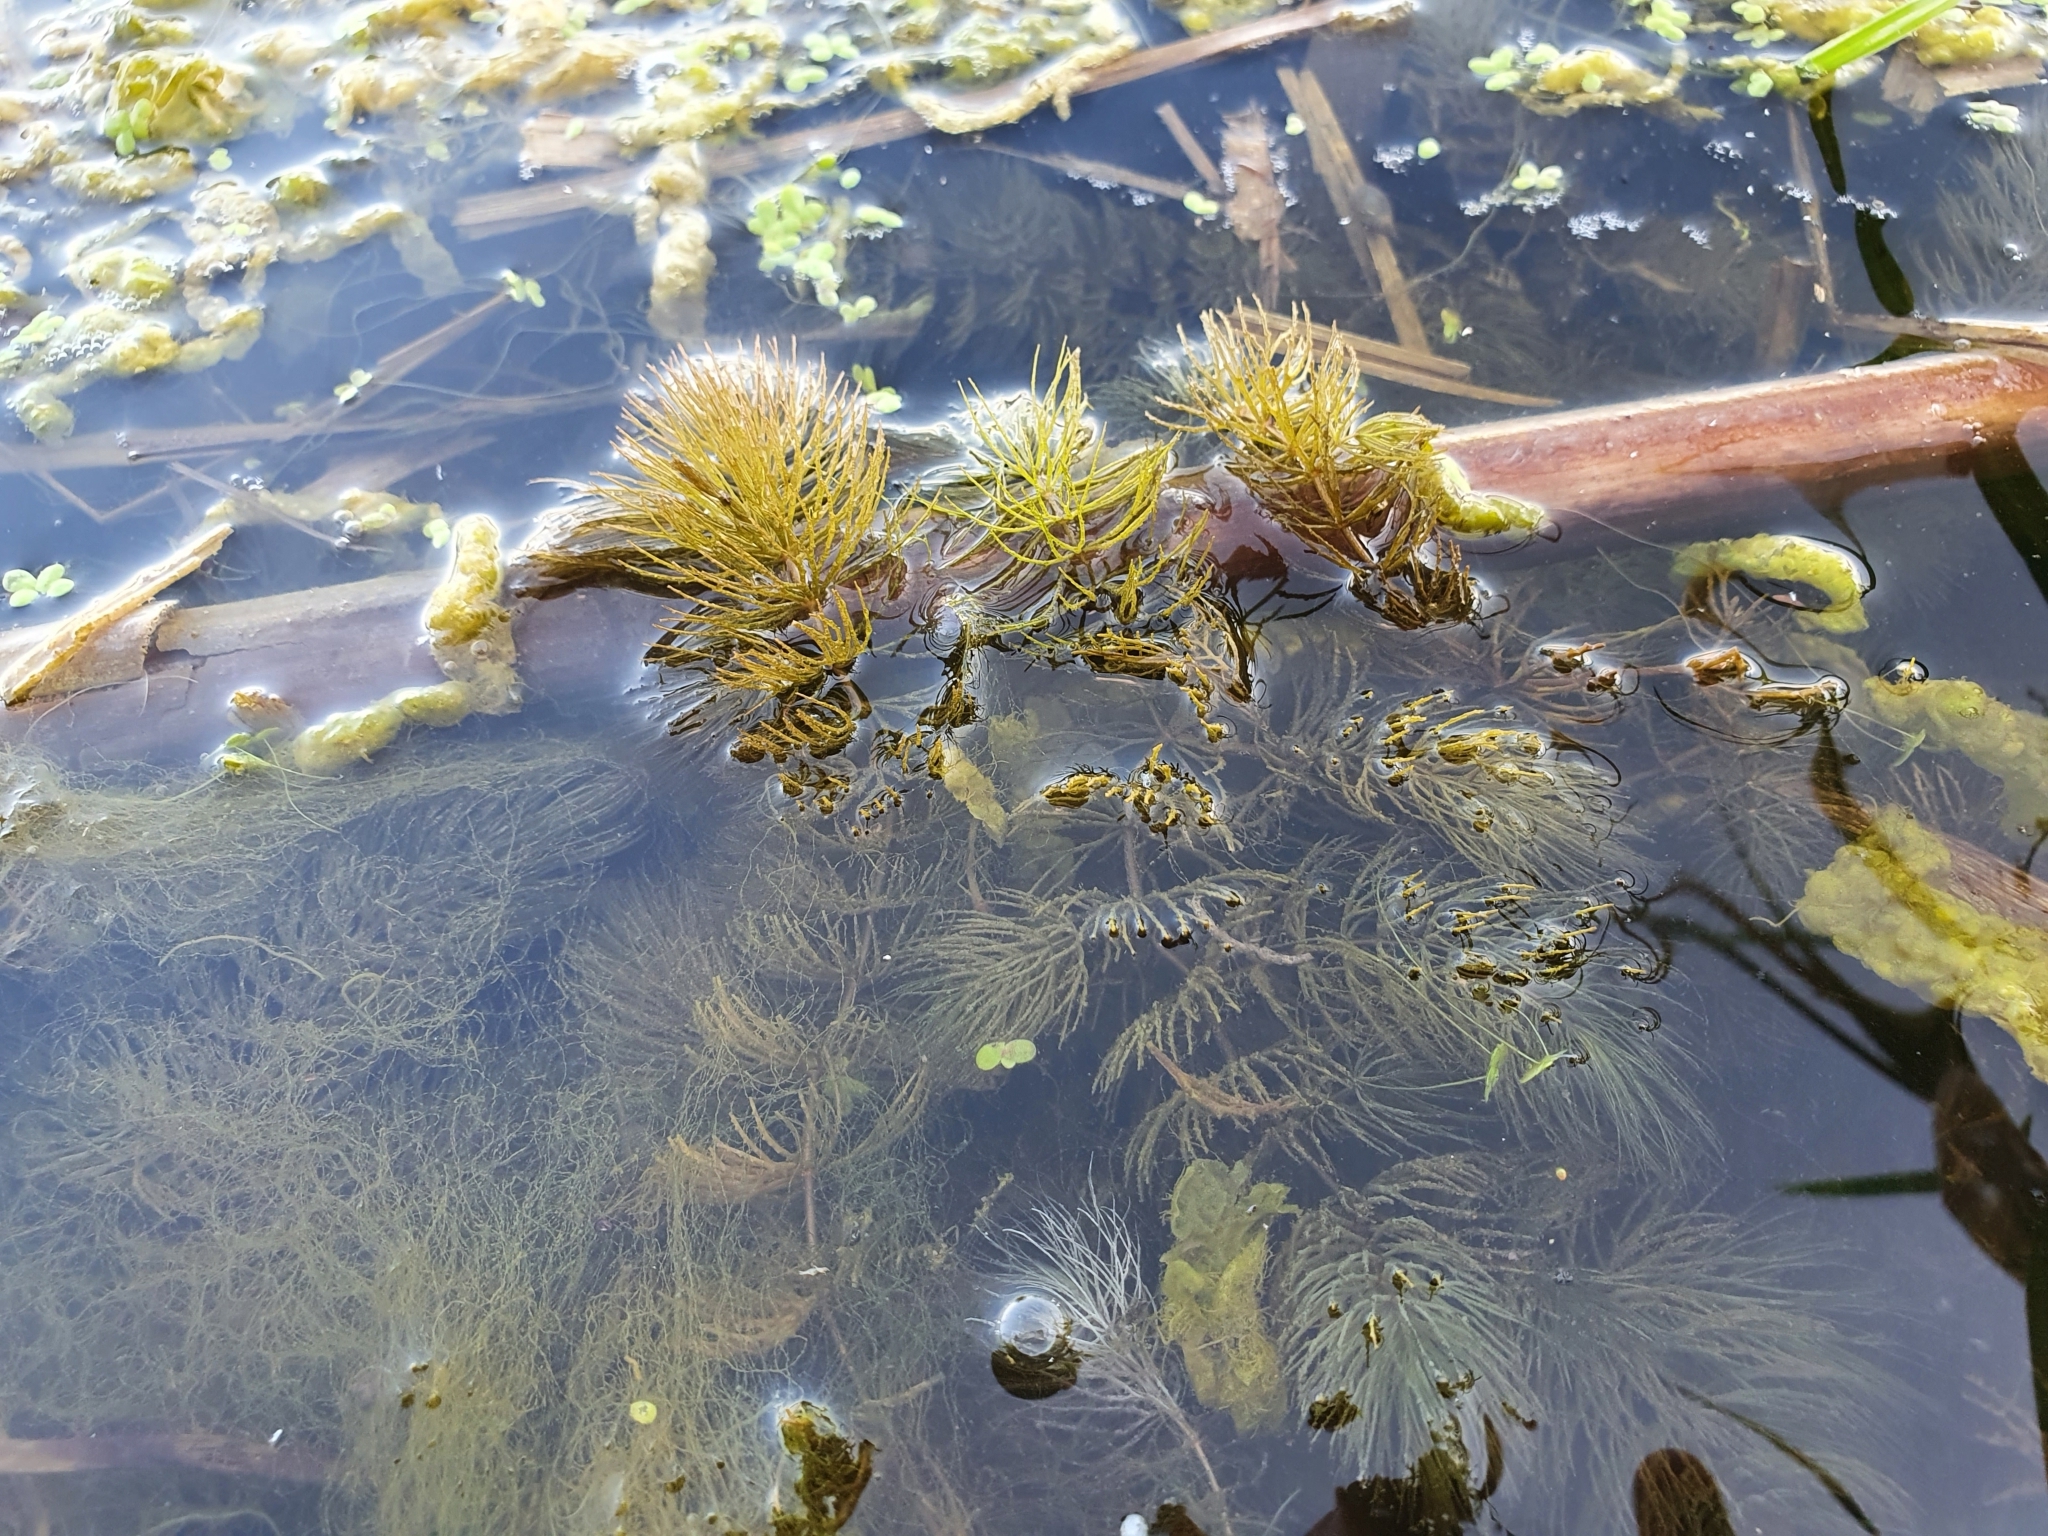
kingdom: Plantae
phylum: Tracheophyta
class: Magnoliopsida
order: Ceratophyllales
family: Ceratophyllaceae
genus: Ceratophyllum
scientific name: Ceratophyllum demersum
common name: Rigid hornwort
